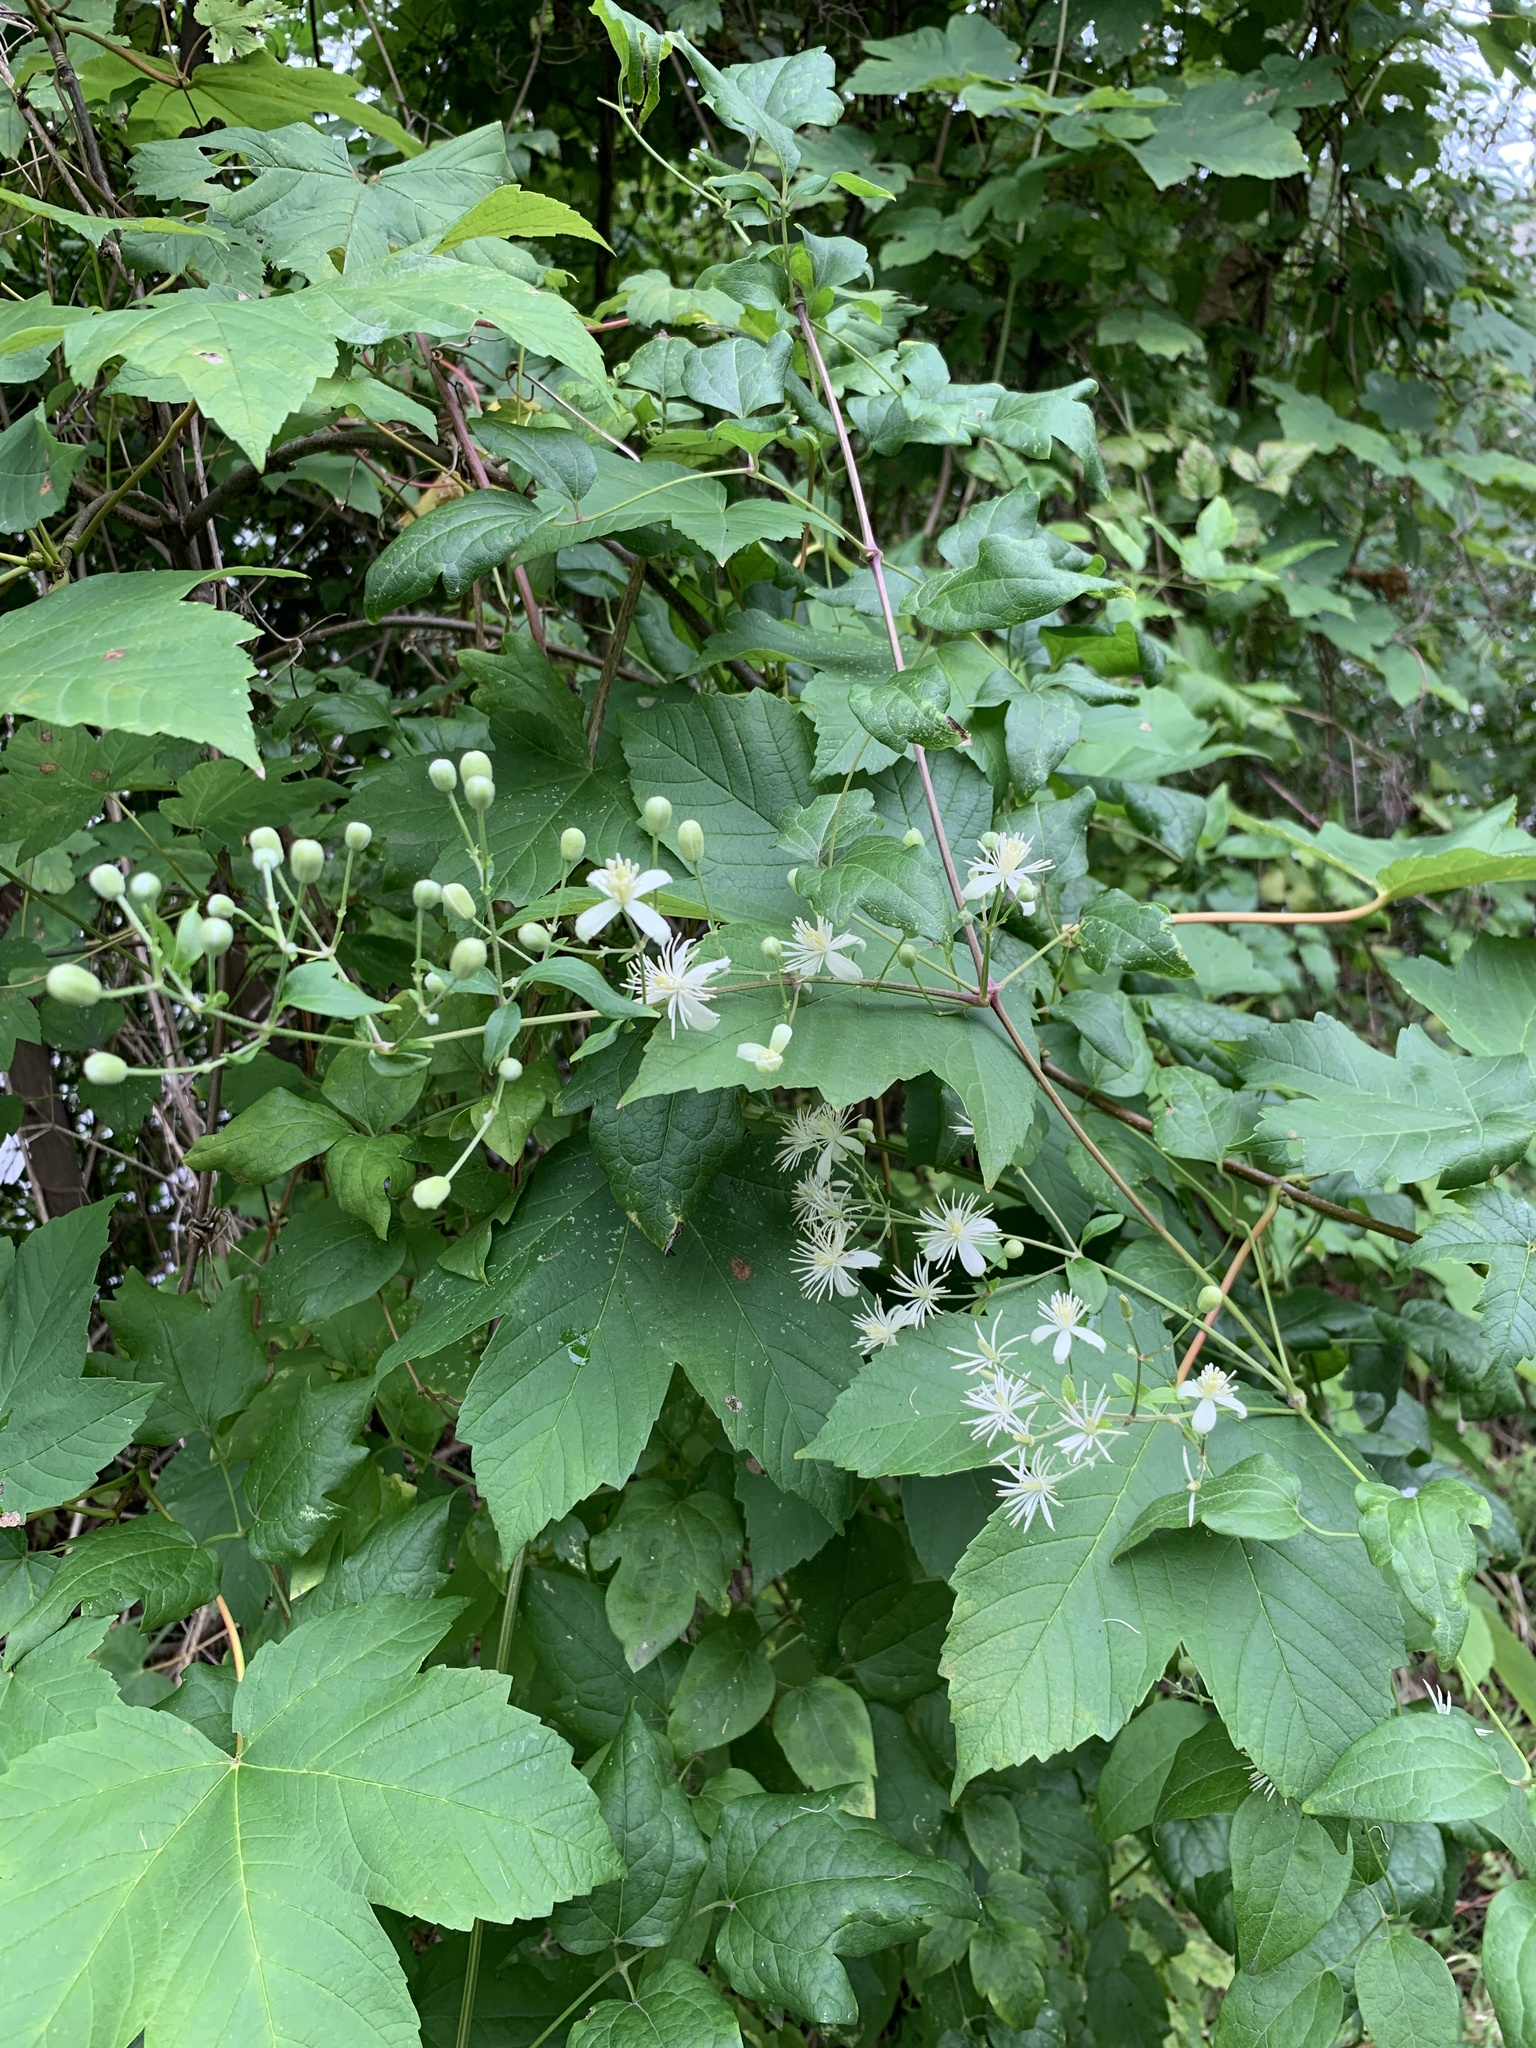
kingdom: Plantae
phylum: Tracheophyta
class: Magnoliopsida
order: Ranunculales
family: Ranunculaceae
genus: Clematis
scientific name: Clematis vitalba
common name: Evergreen clematis
